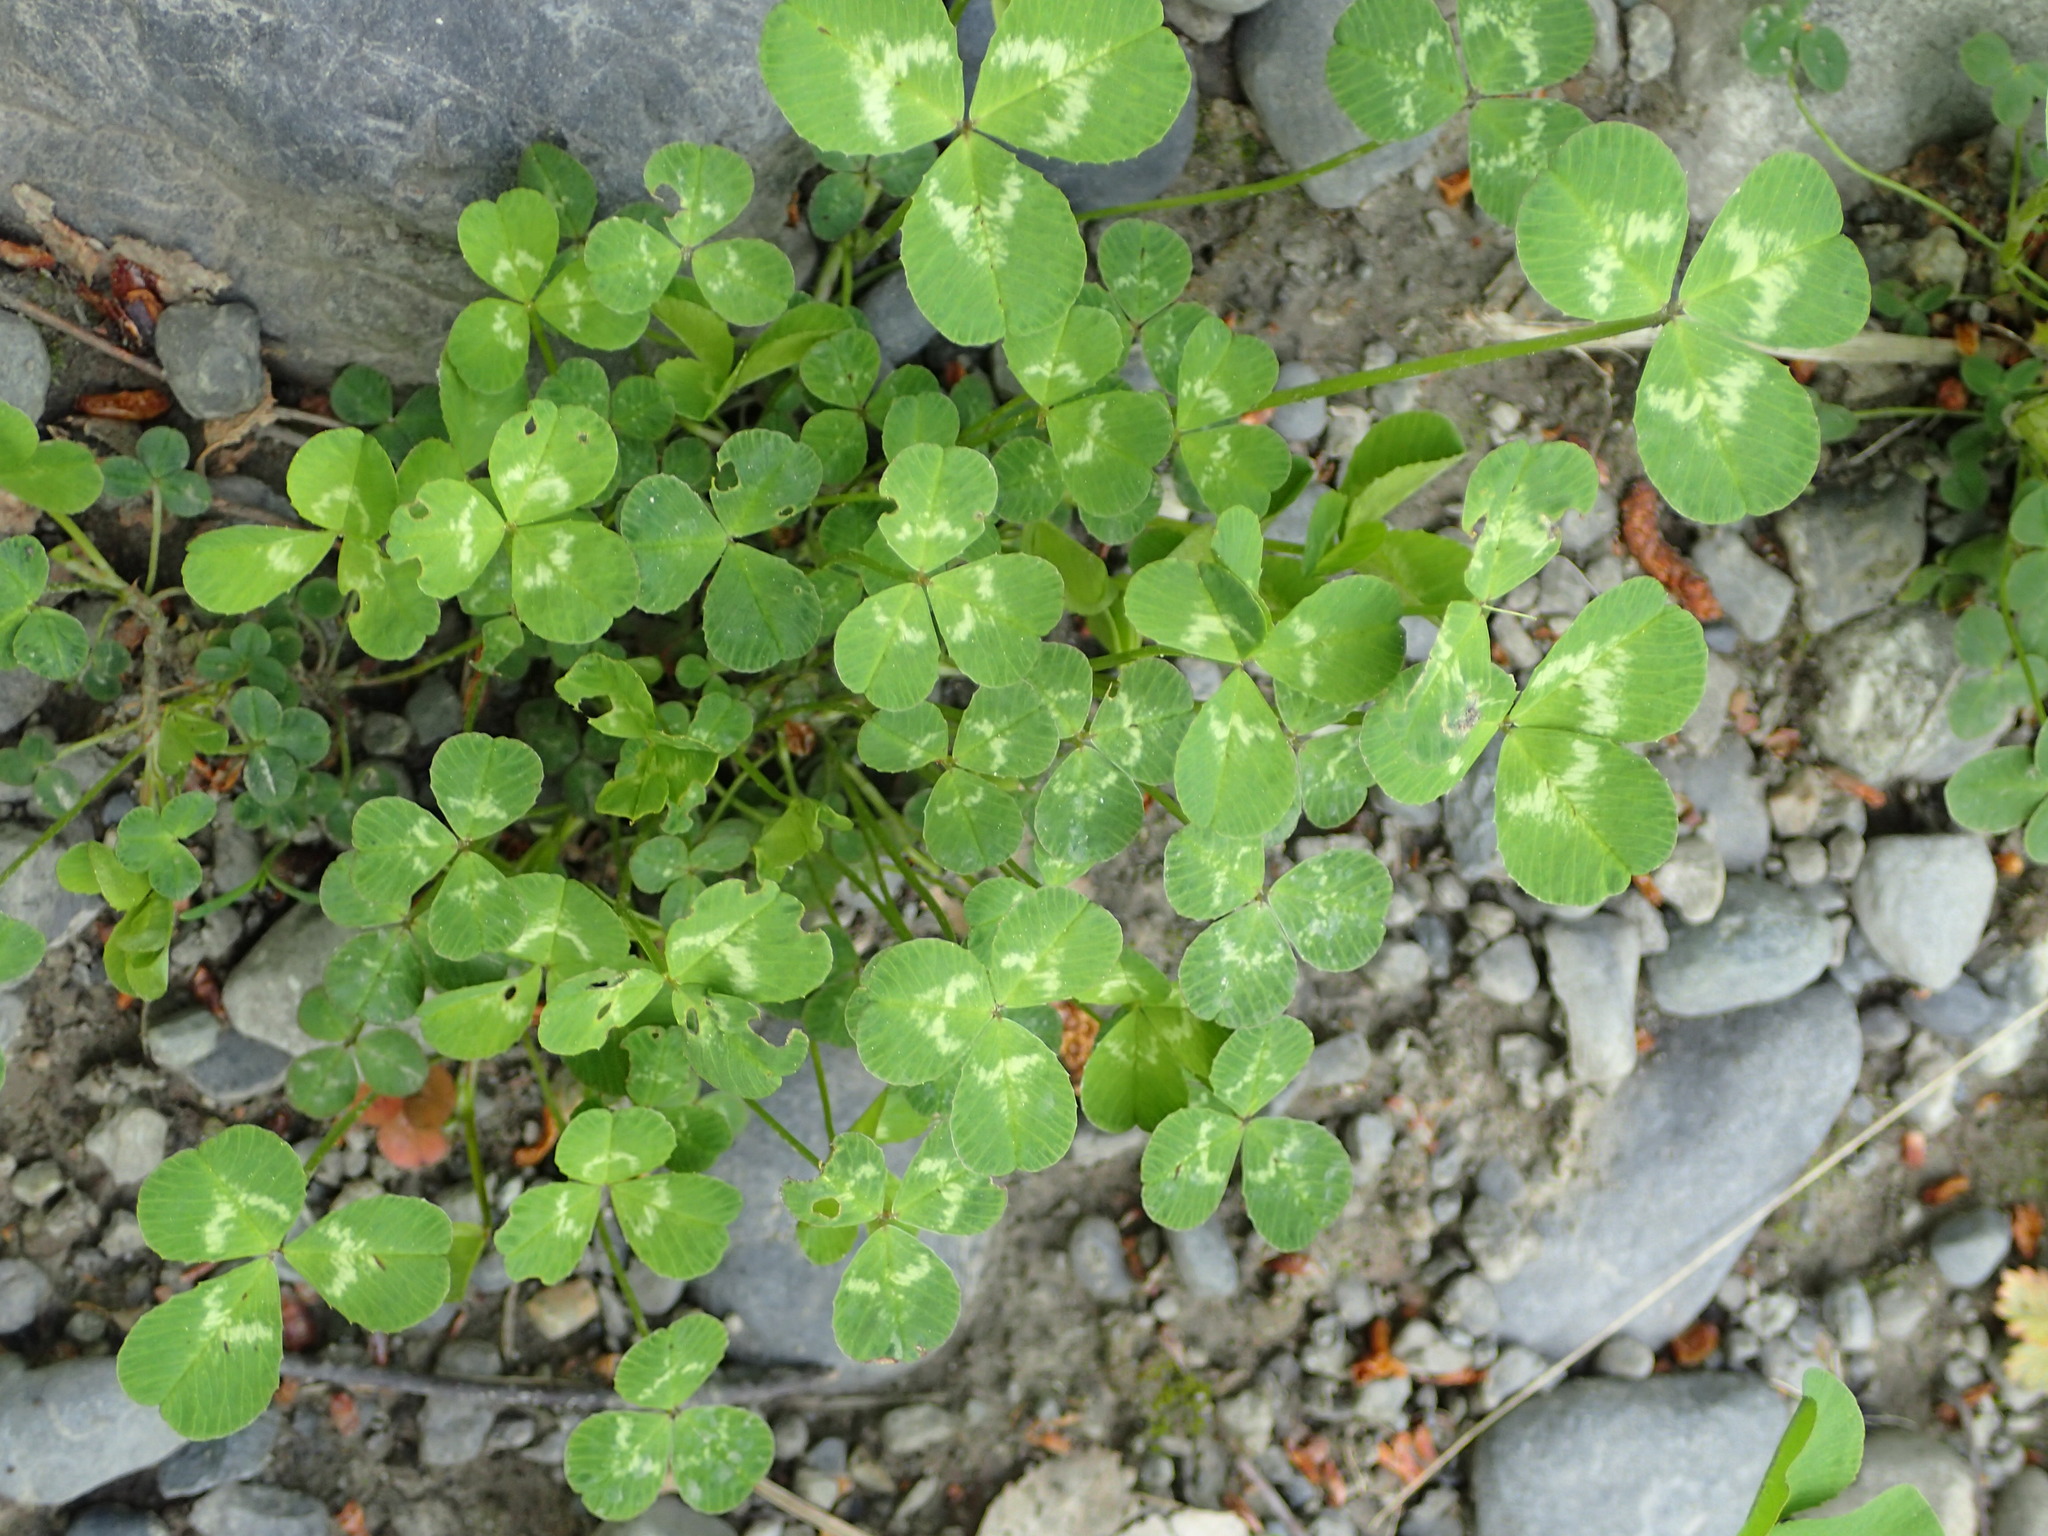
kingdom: Plantae
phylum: Tracheophyta
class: Magnoliopsida
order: Fabales
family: Fabaceae
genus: Trifolium
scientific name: Trifolium repens
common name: White clover
